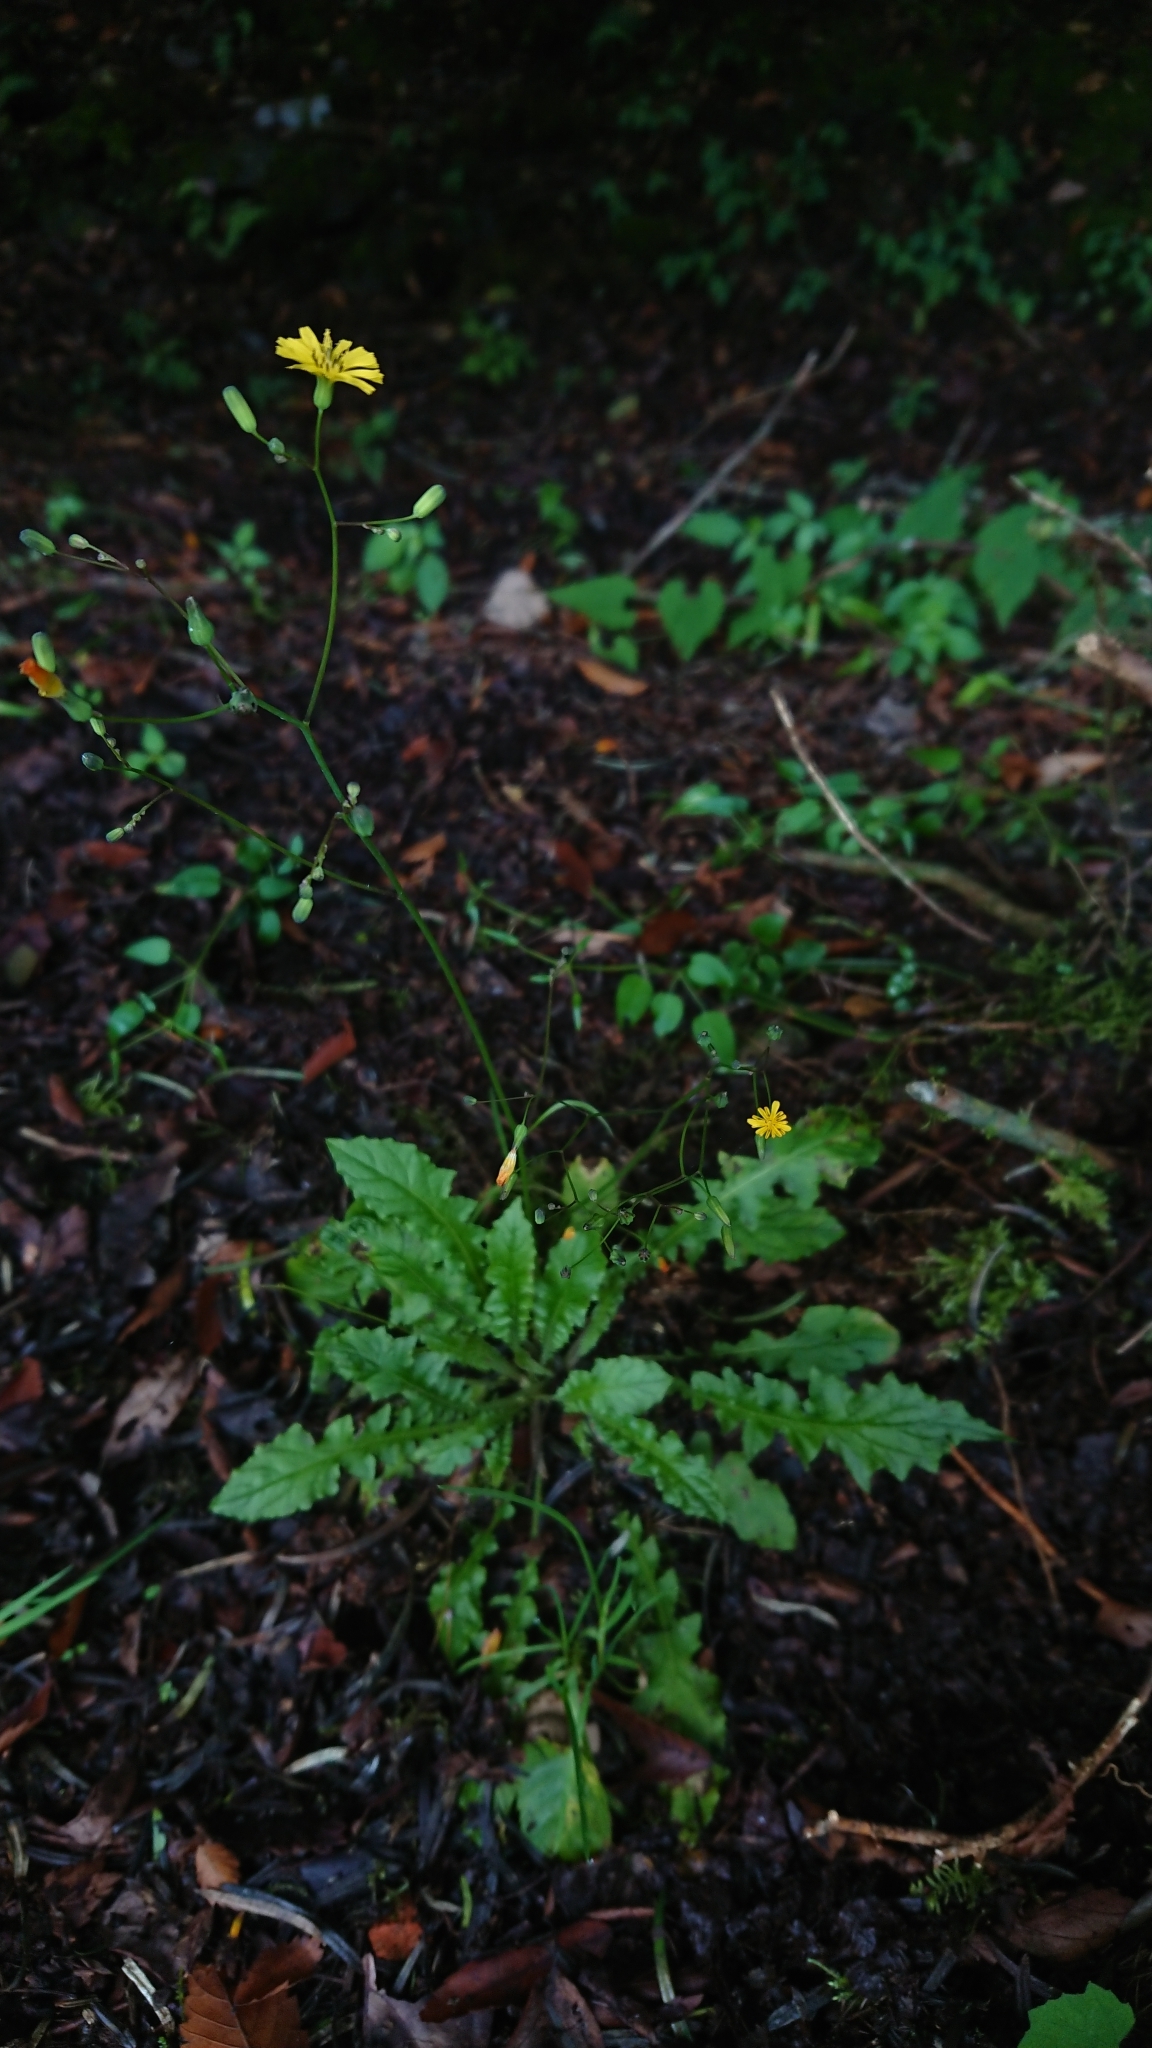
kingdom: Plantae
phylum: Tracheophyta
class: Magnoliopsida
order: Asterales
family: Asteraceae
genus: Youngia
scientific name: Youngia japonica
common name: Oriental false hawksbeard
